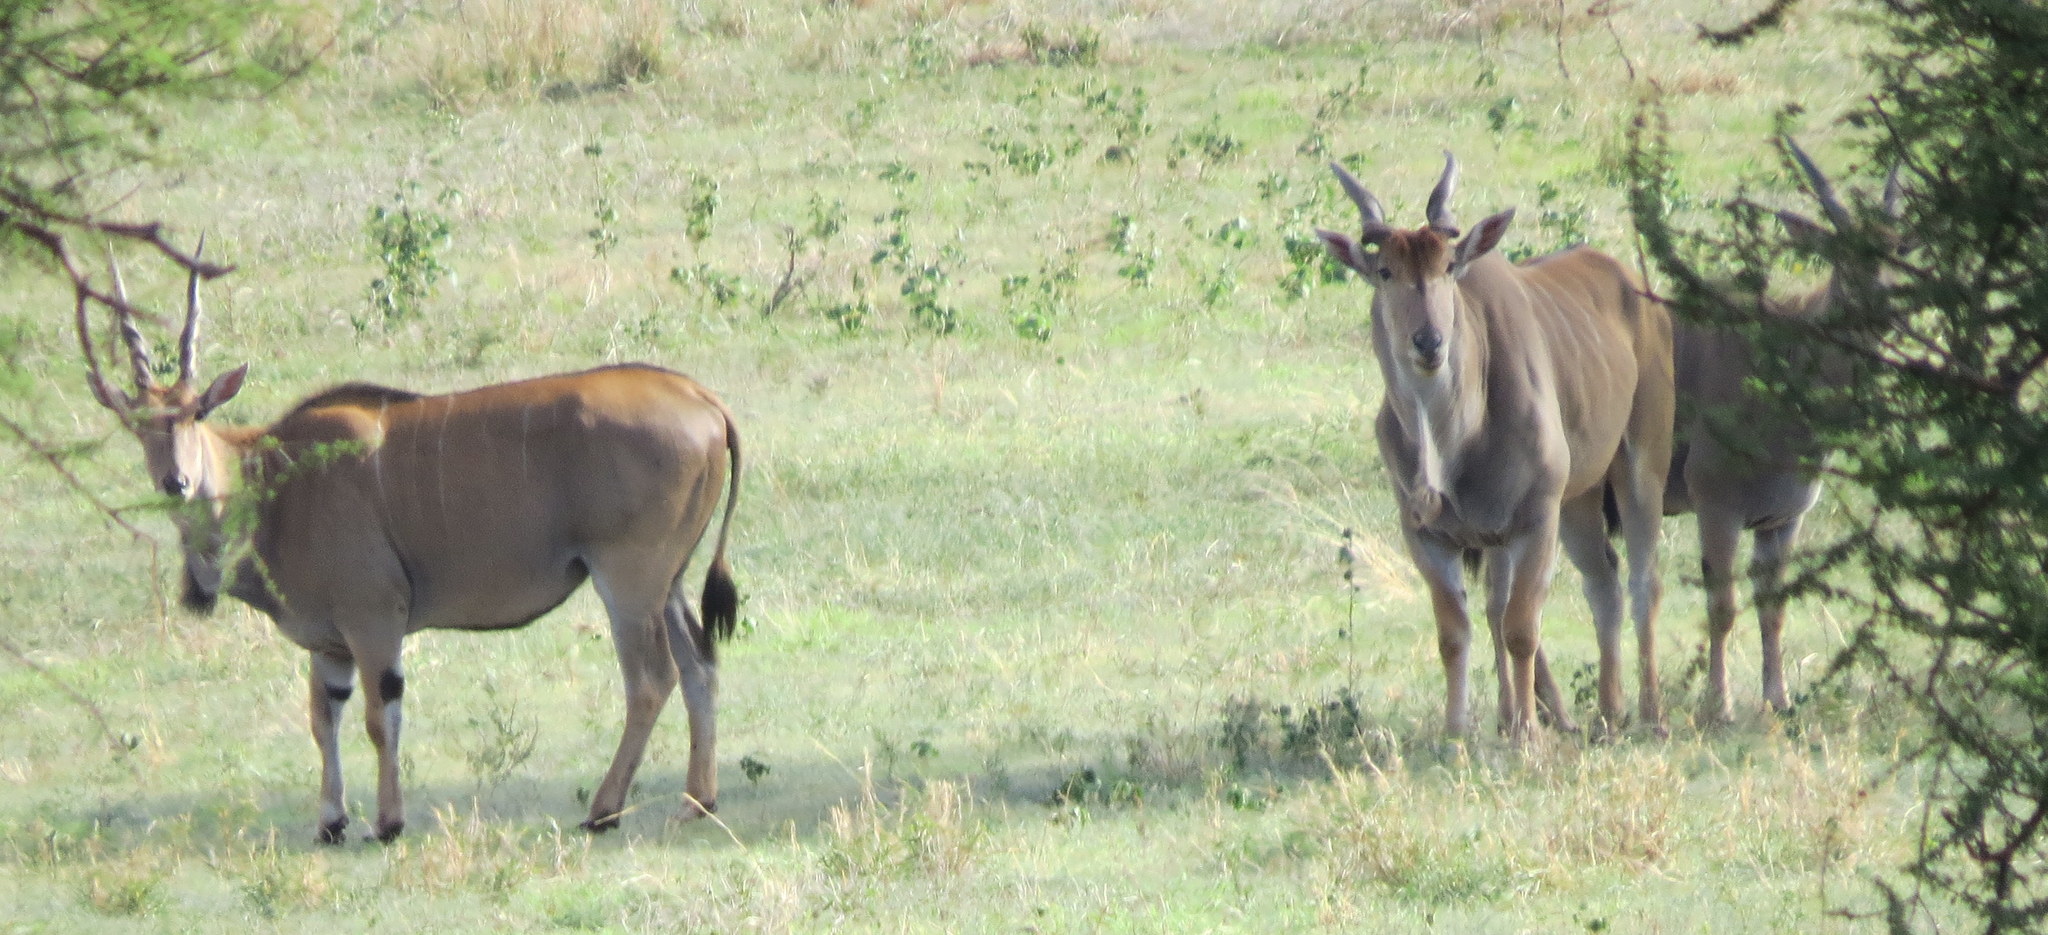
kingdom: Animalia
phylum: Chordata
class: Mammalia
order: Artiodactyla
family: Bovidae
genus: Taurotragus
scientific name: Taurotragus oryx
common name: Common eland
